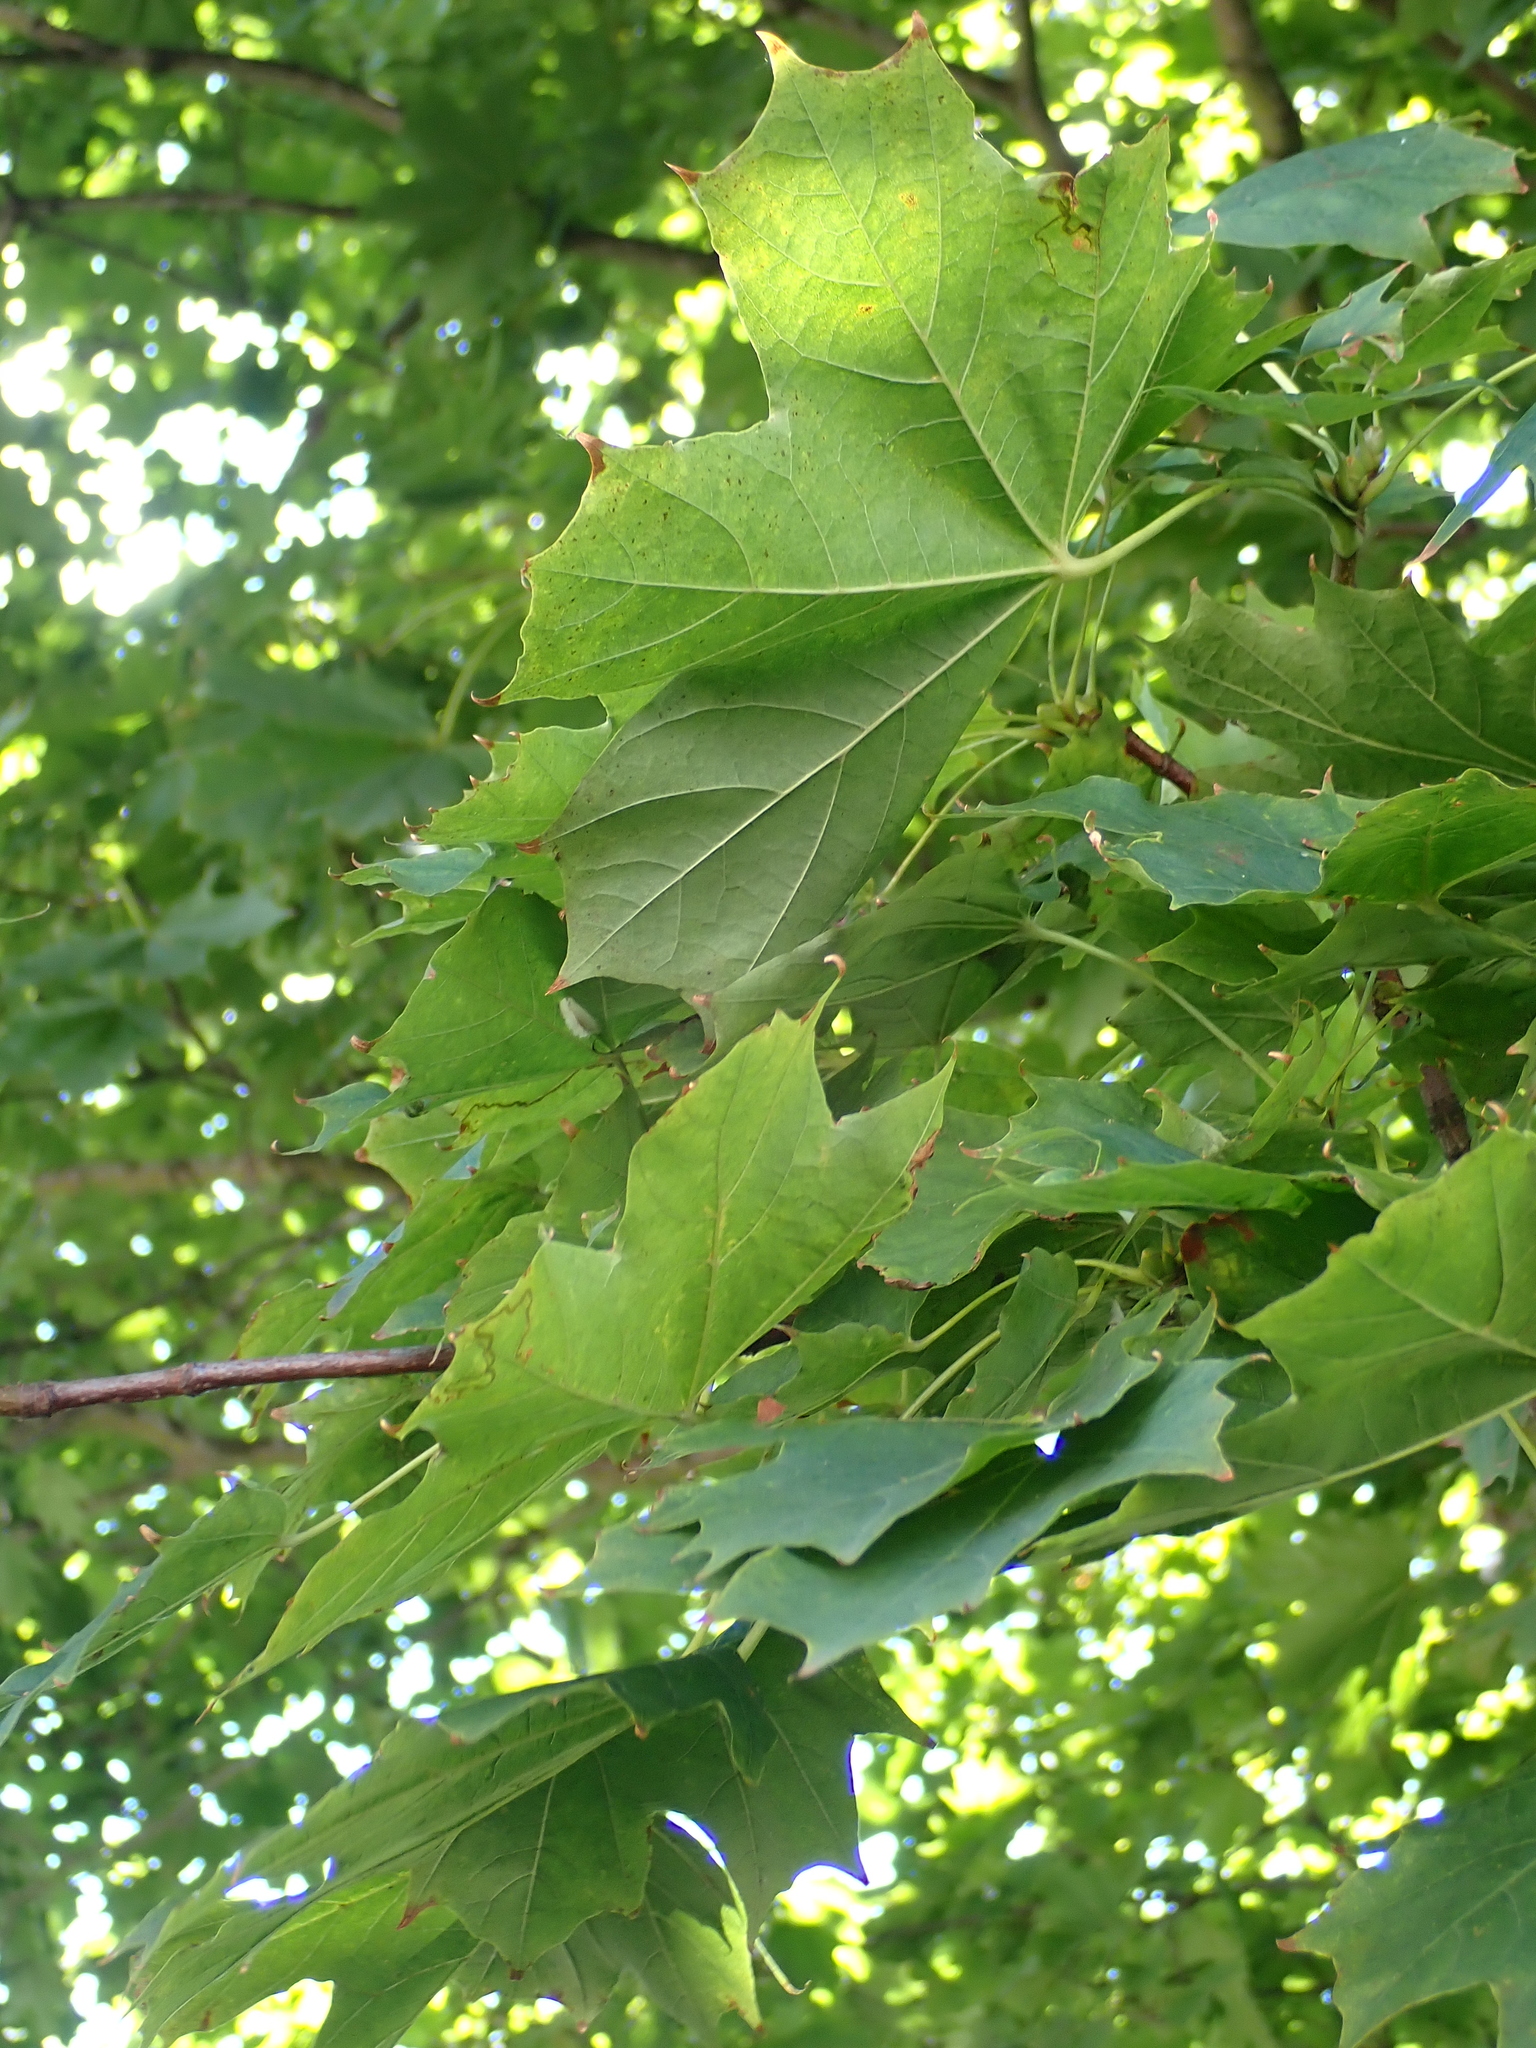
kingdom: Plantae
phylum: Tracheophyta
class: Magnoliopsida
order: Sapindales
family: Sapindaceae
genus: Acer
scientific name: Acer platanoides
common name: Norway maple
